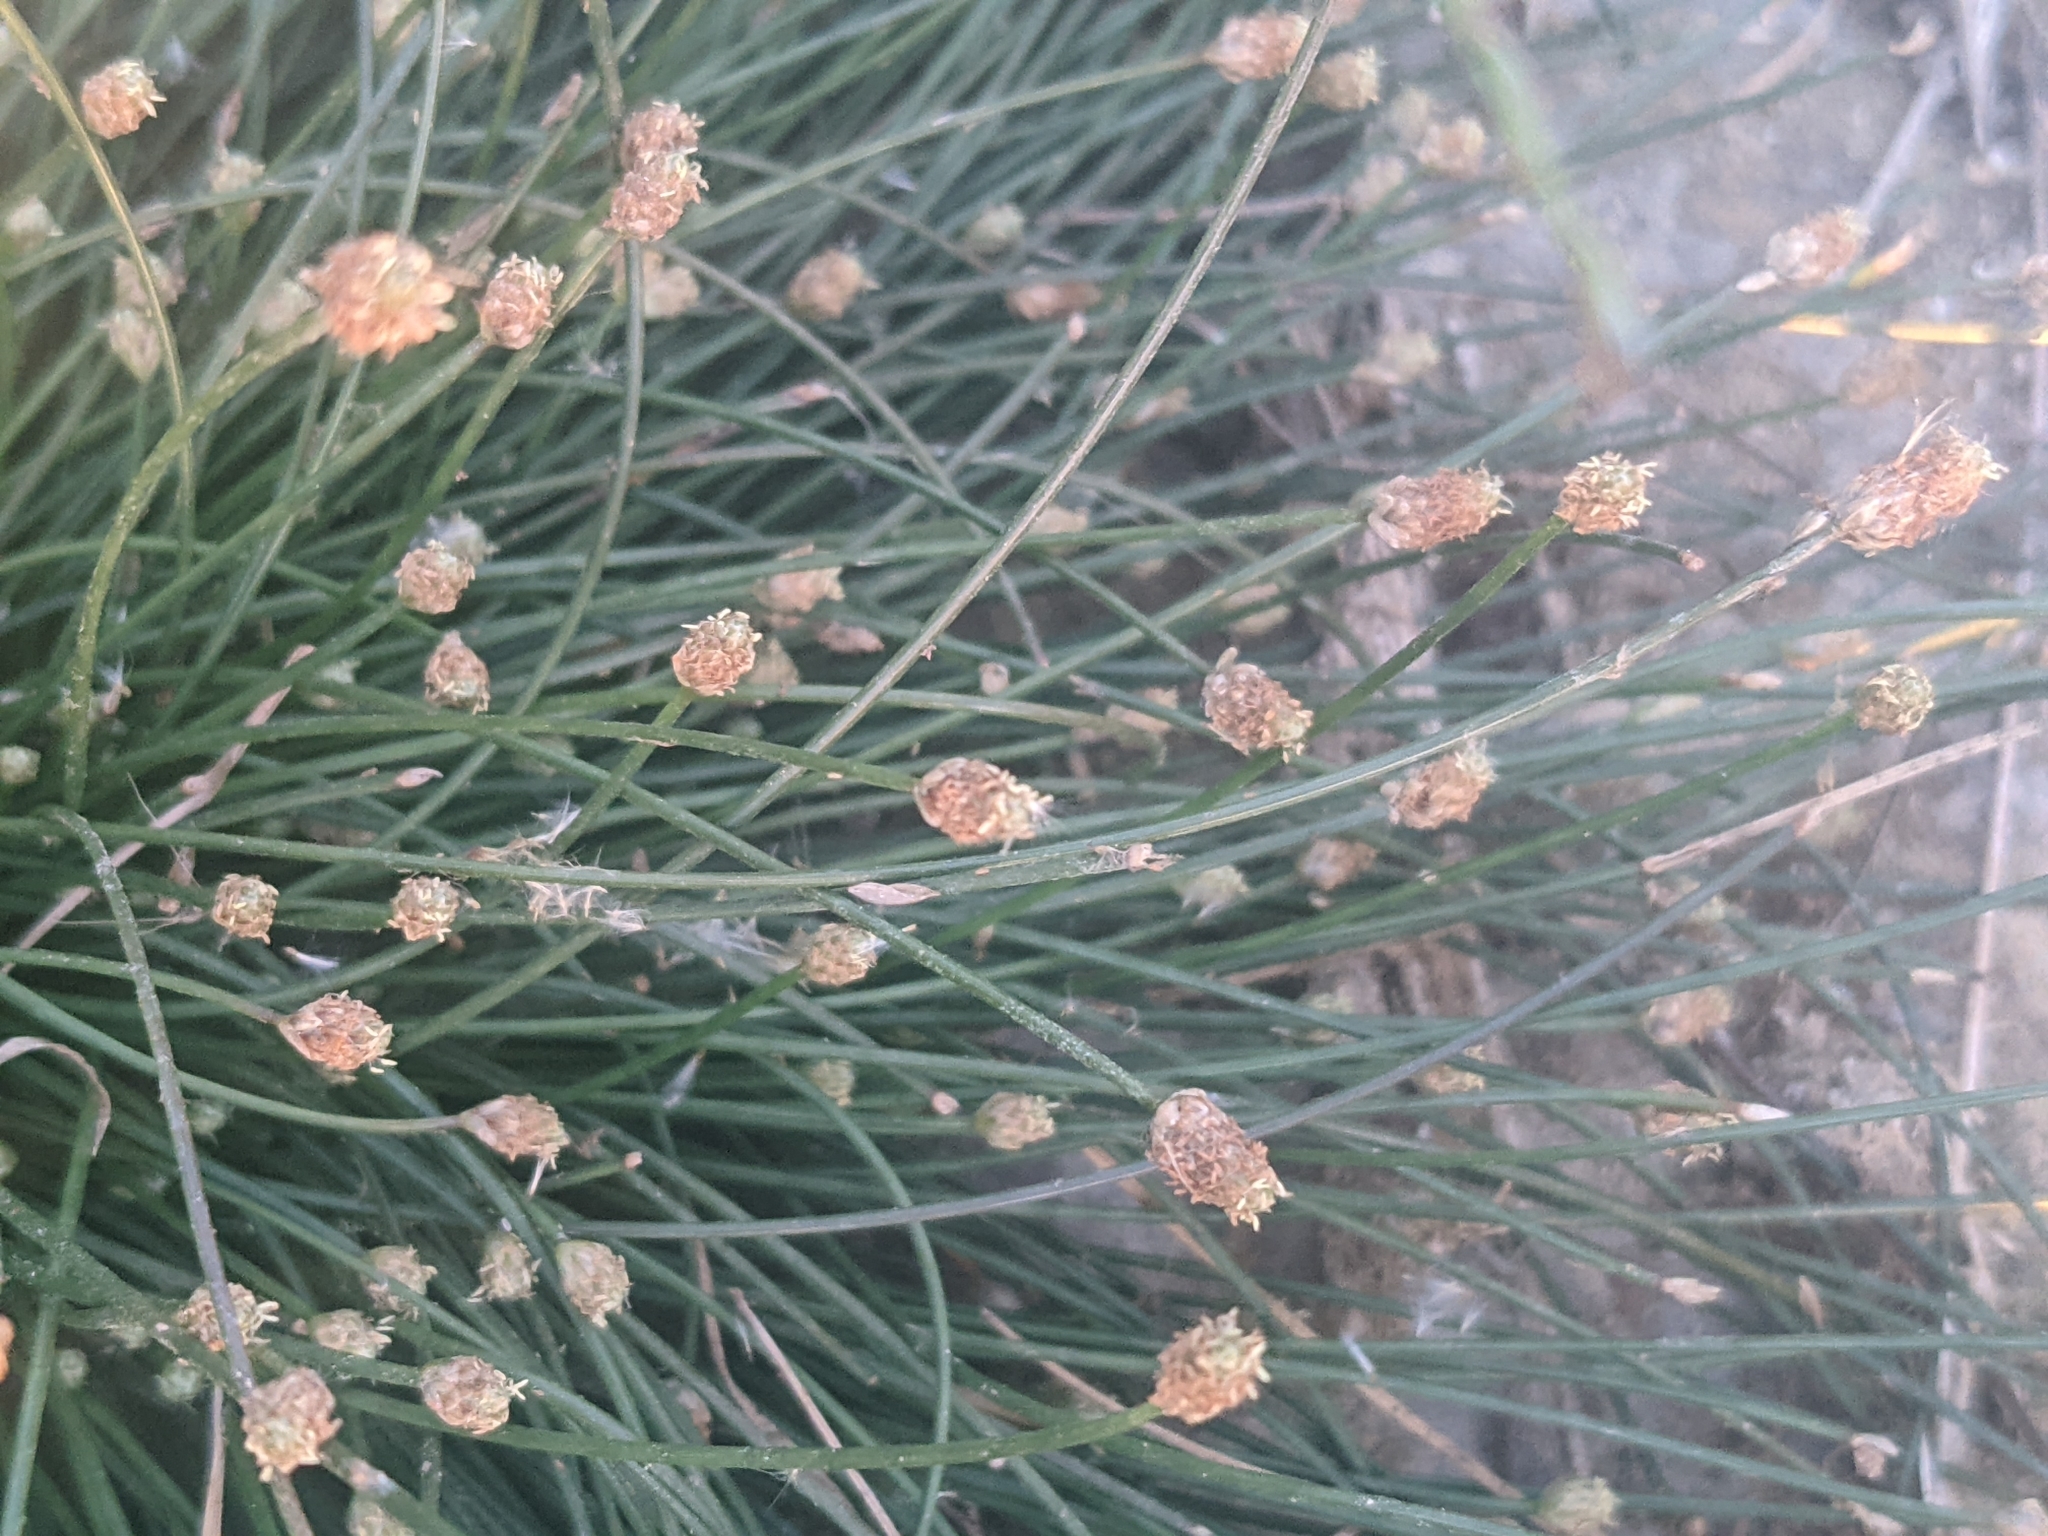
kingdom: Plantae
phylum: Tracheophyta
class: Liliopsida
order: Poales
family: Cyperaceae
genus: Eleocharis
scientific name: Eleocharis geniculata
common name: Canada spikesedge
